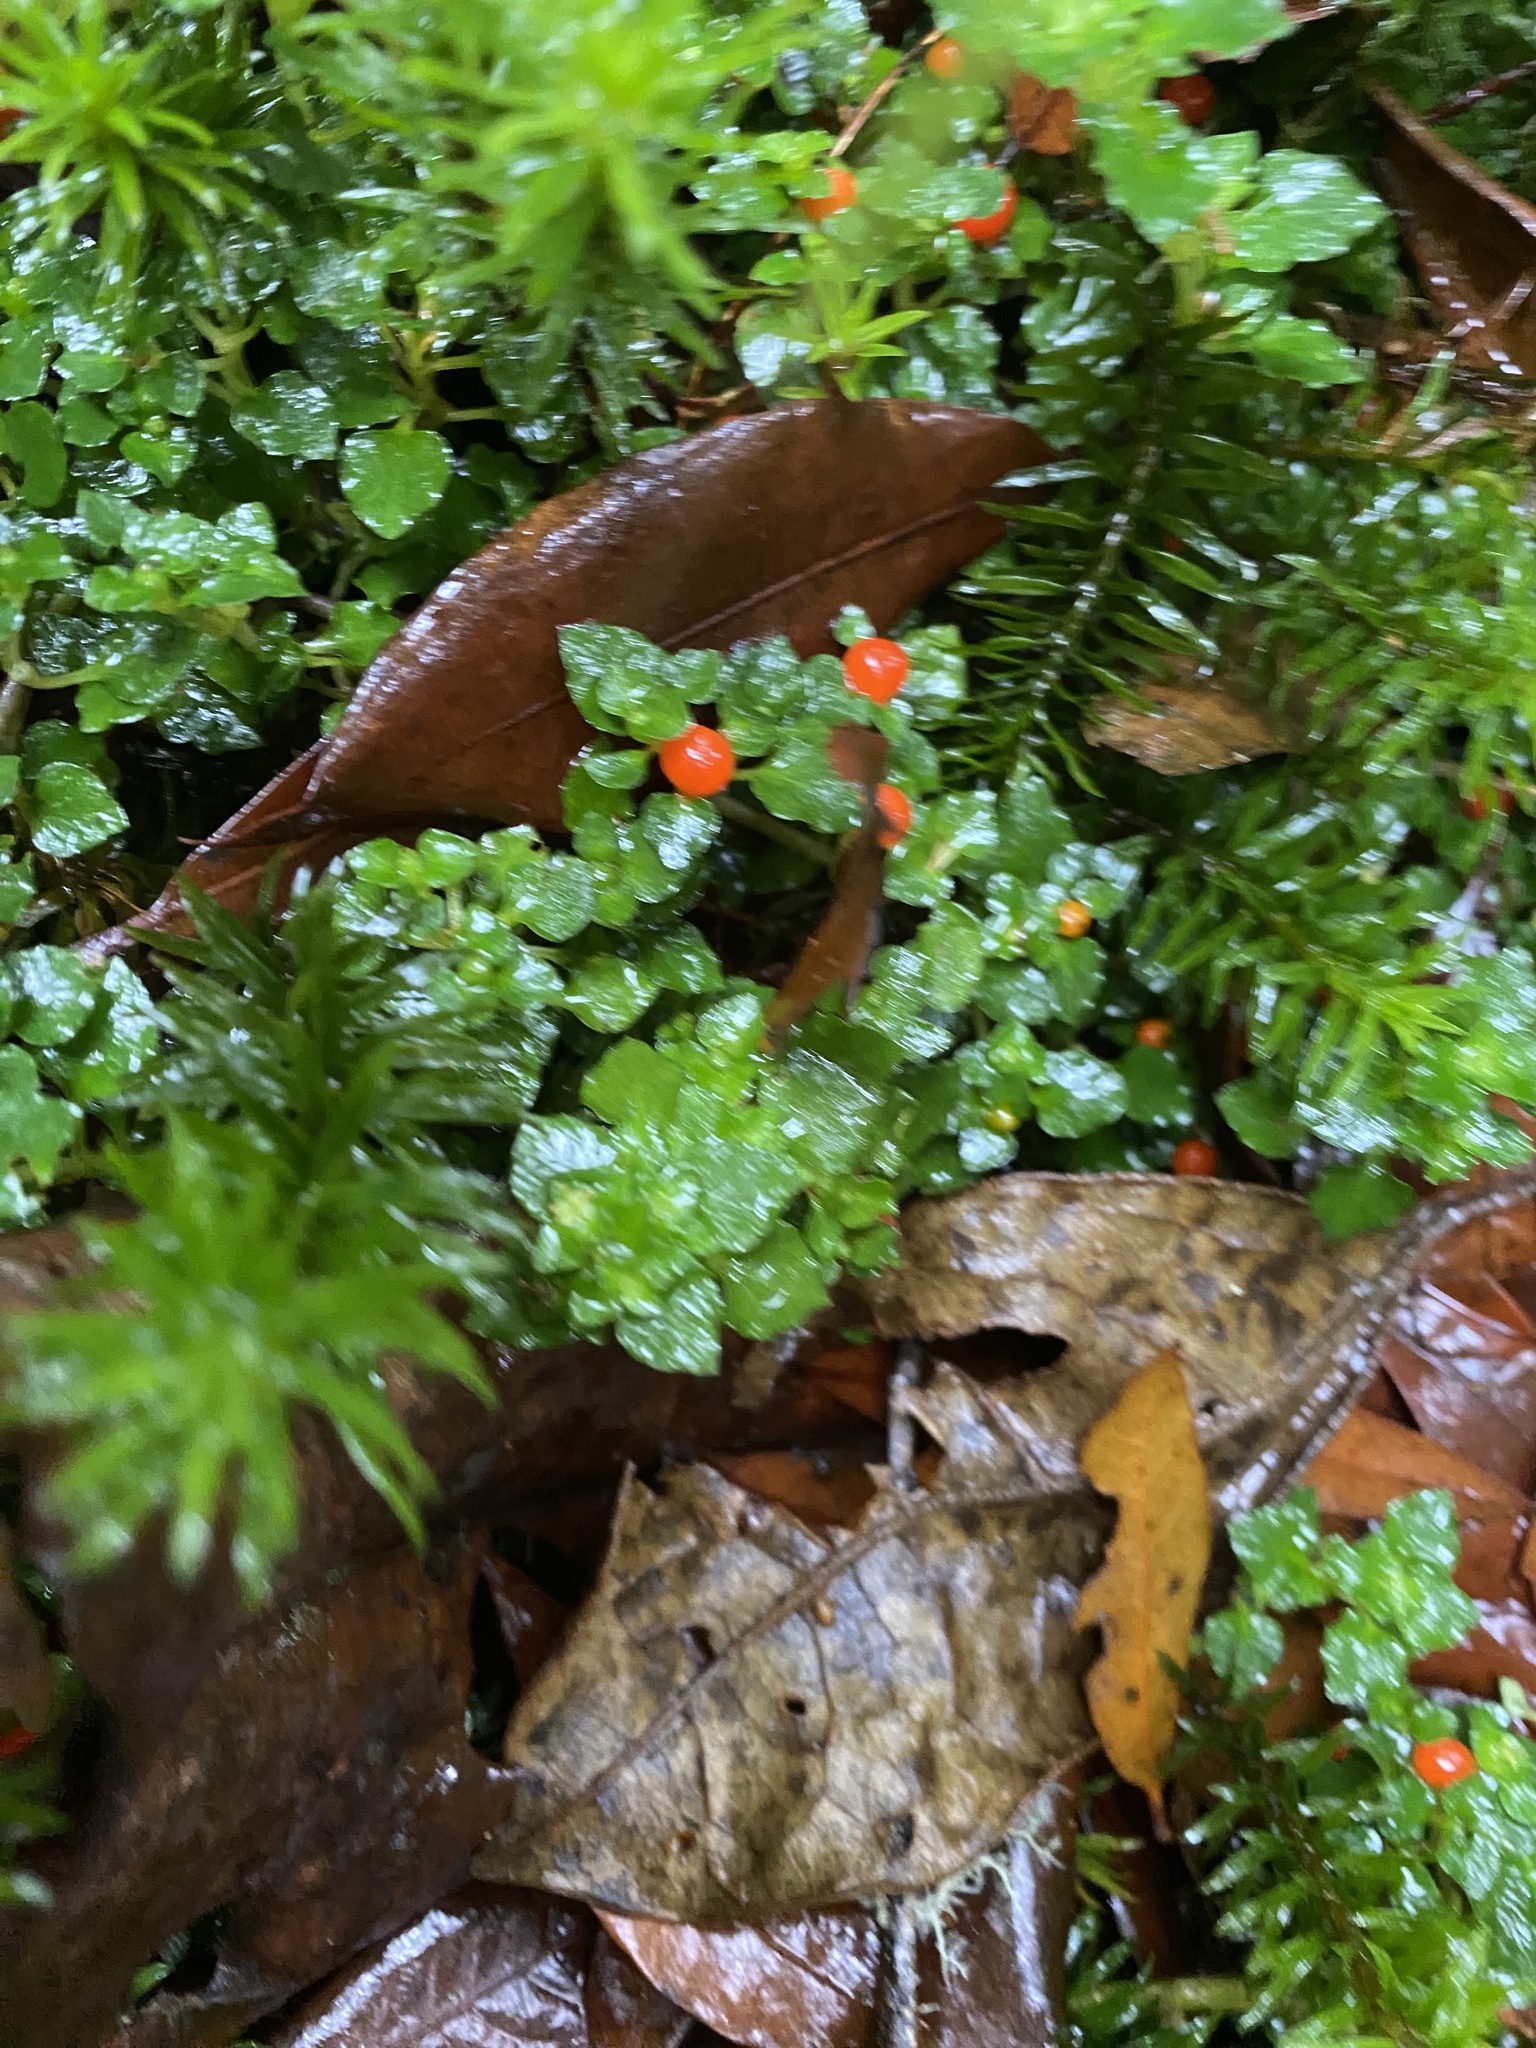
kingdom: Plantae
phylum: Tracheophyta
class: Magnoliopsida
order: Gentianales
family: Rubiaceae
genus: Nertera
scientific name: Nertera granadensis
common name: Beadplant
